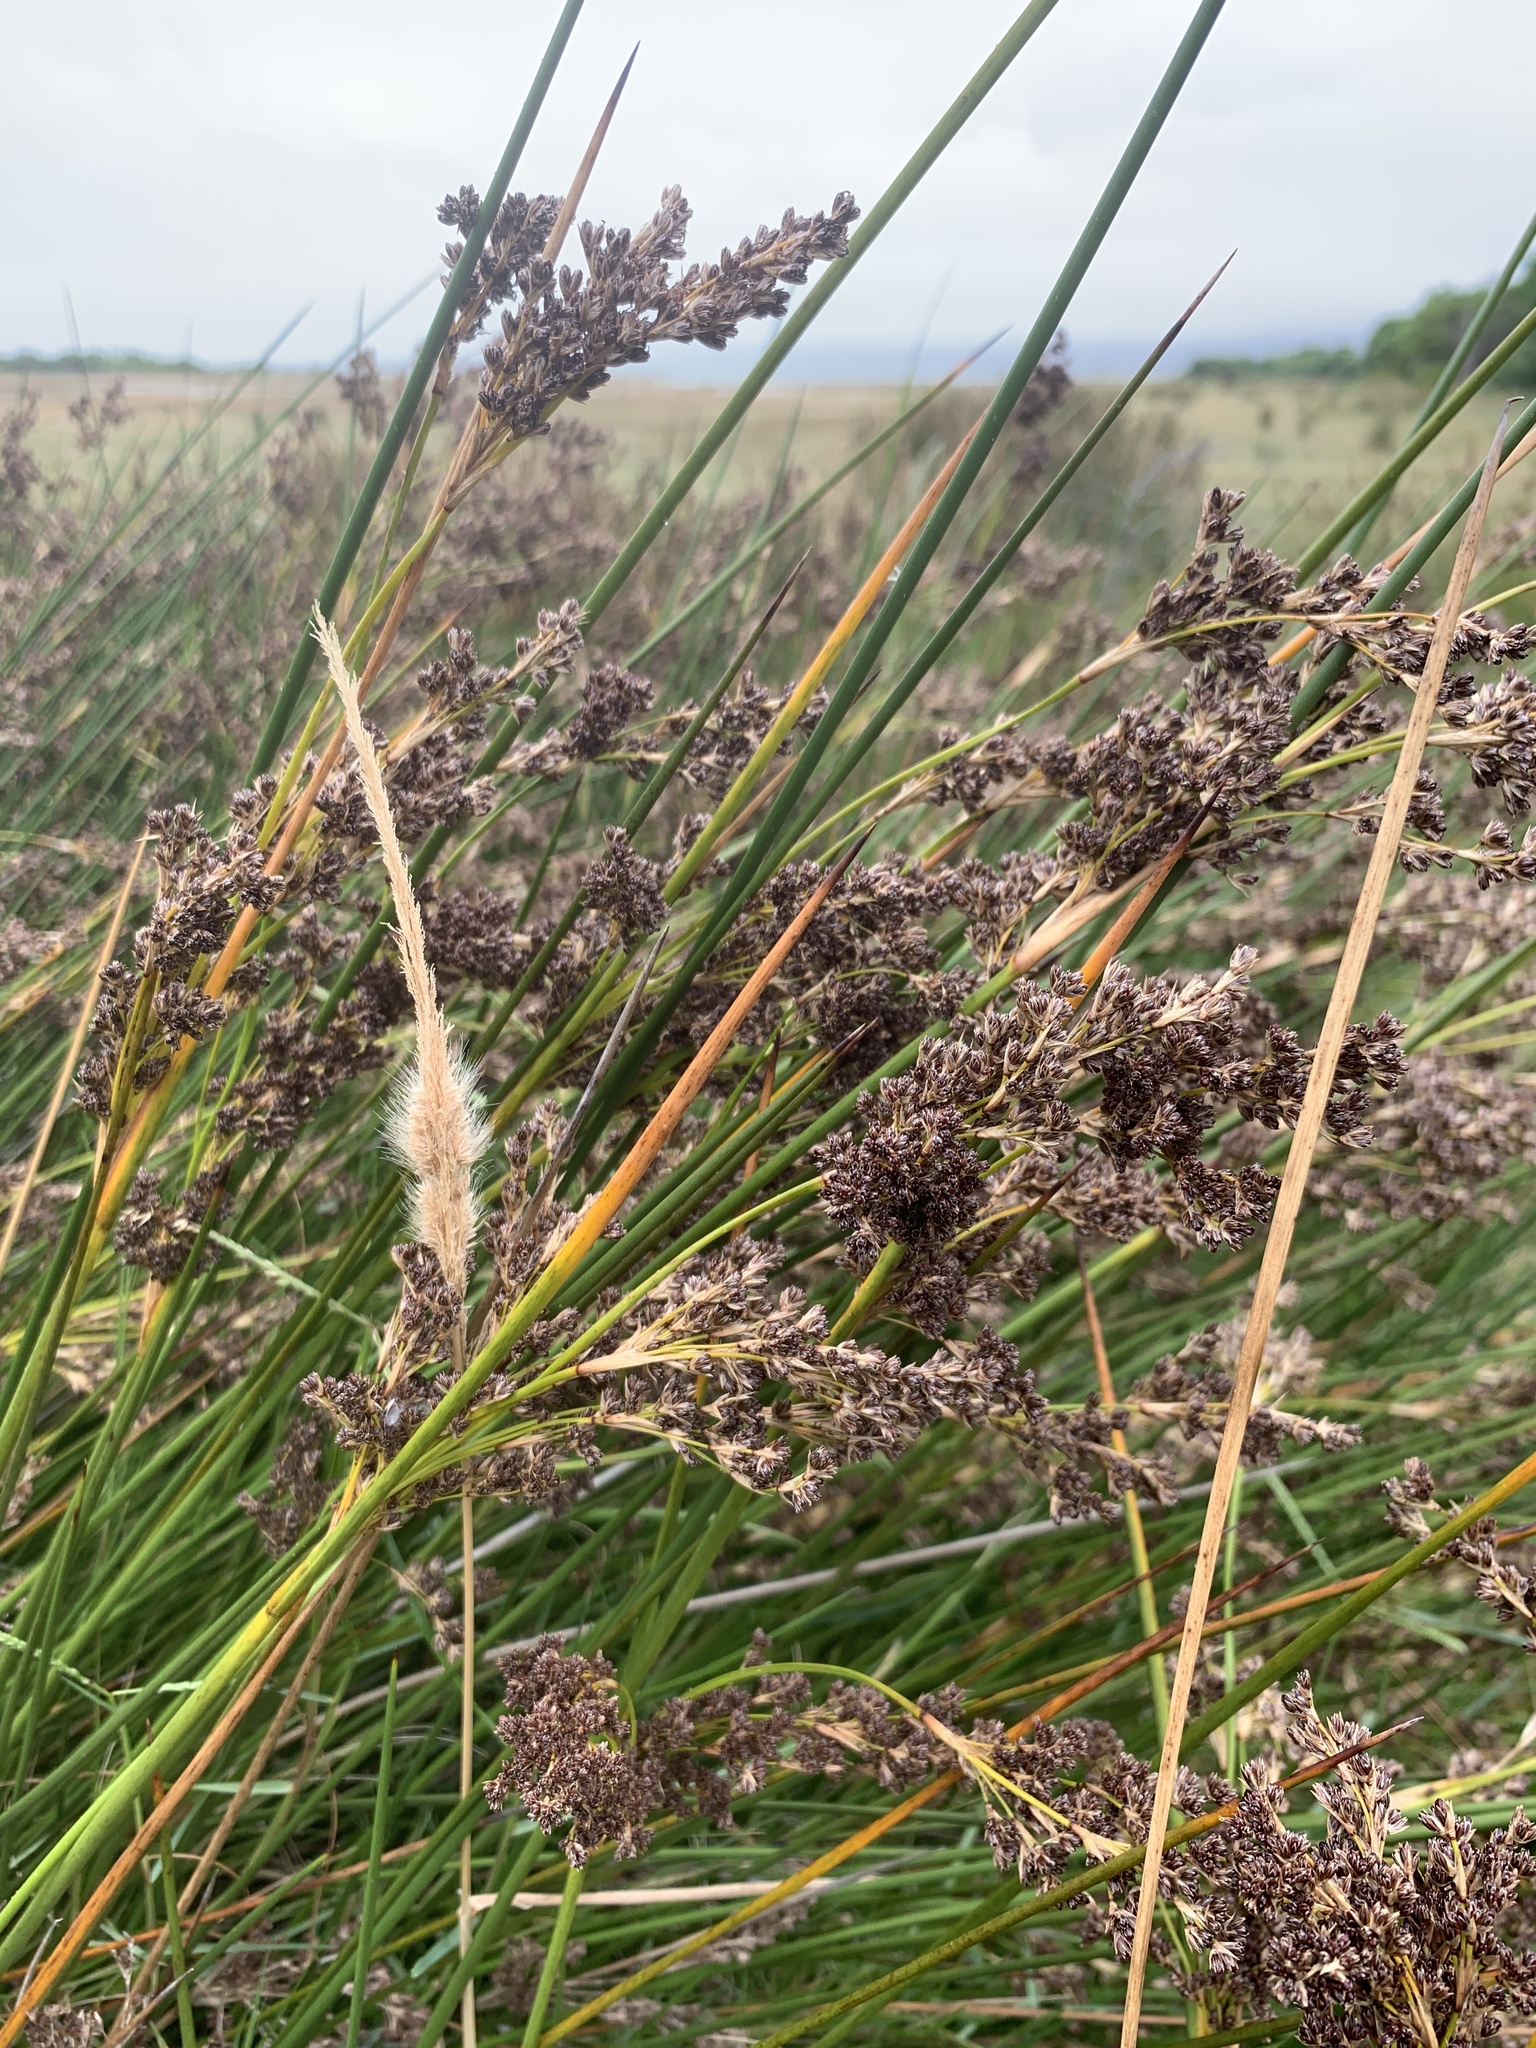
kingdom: Plantae
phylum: Tracheophyta
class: Liliopsida
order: Poales
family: Juncaceae
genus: Juncus
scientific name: Juncus kraussii
